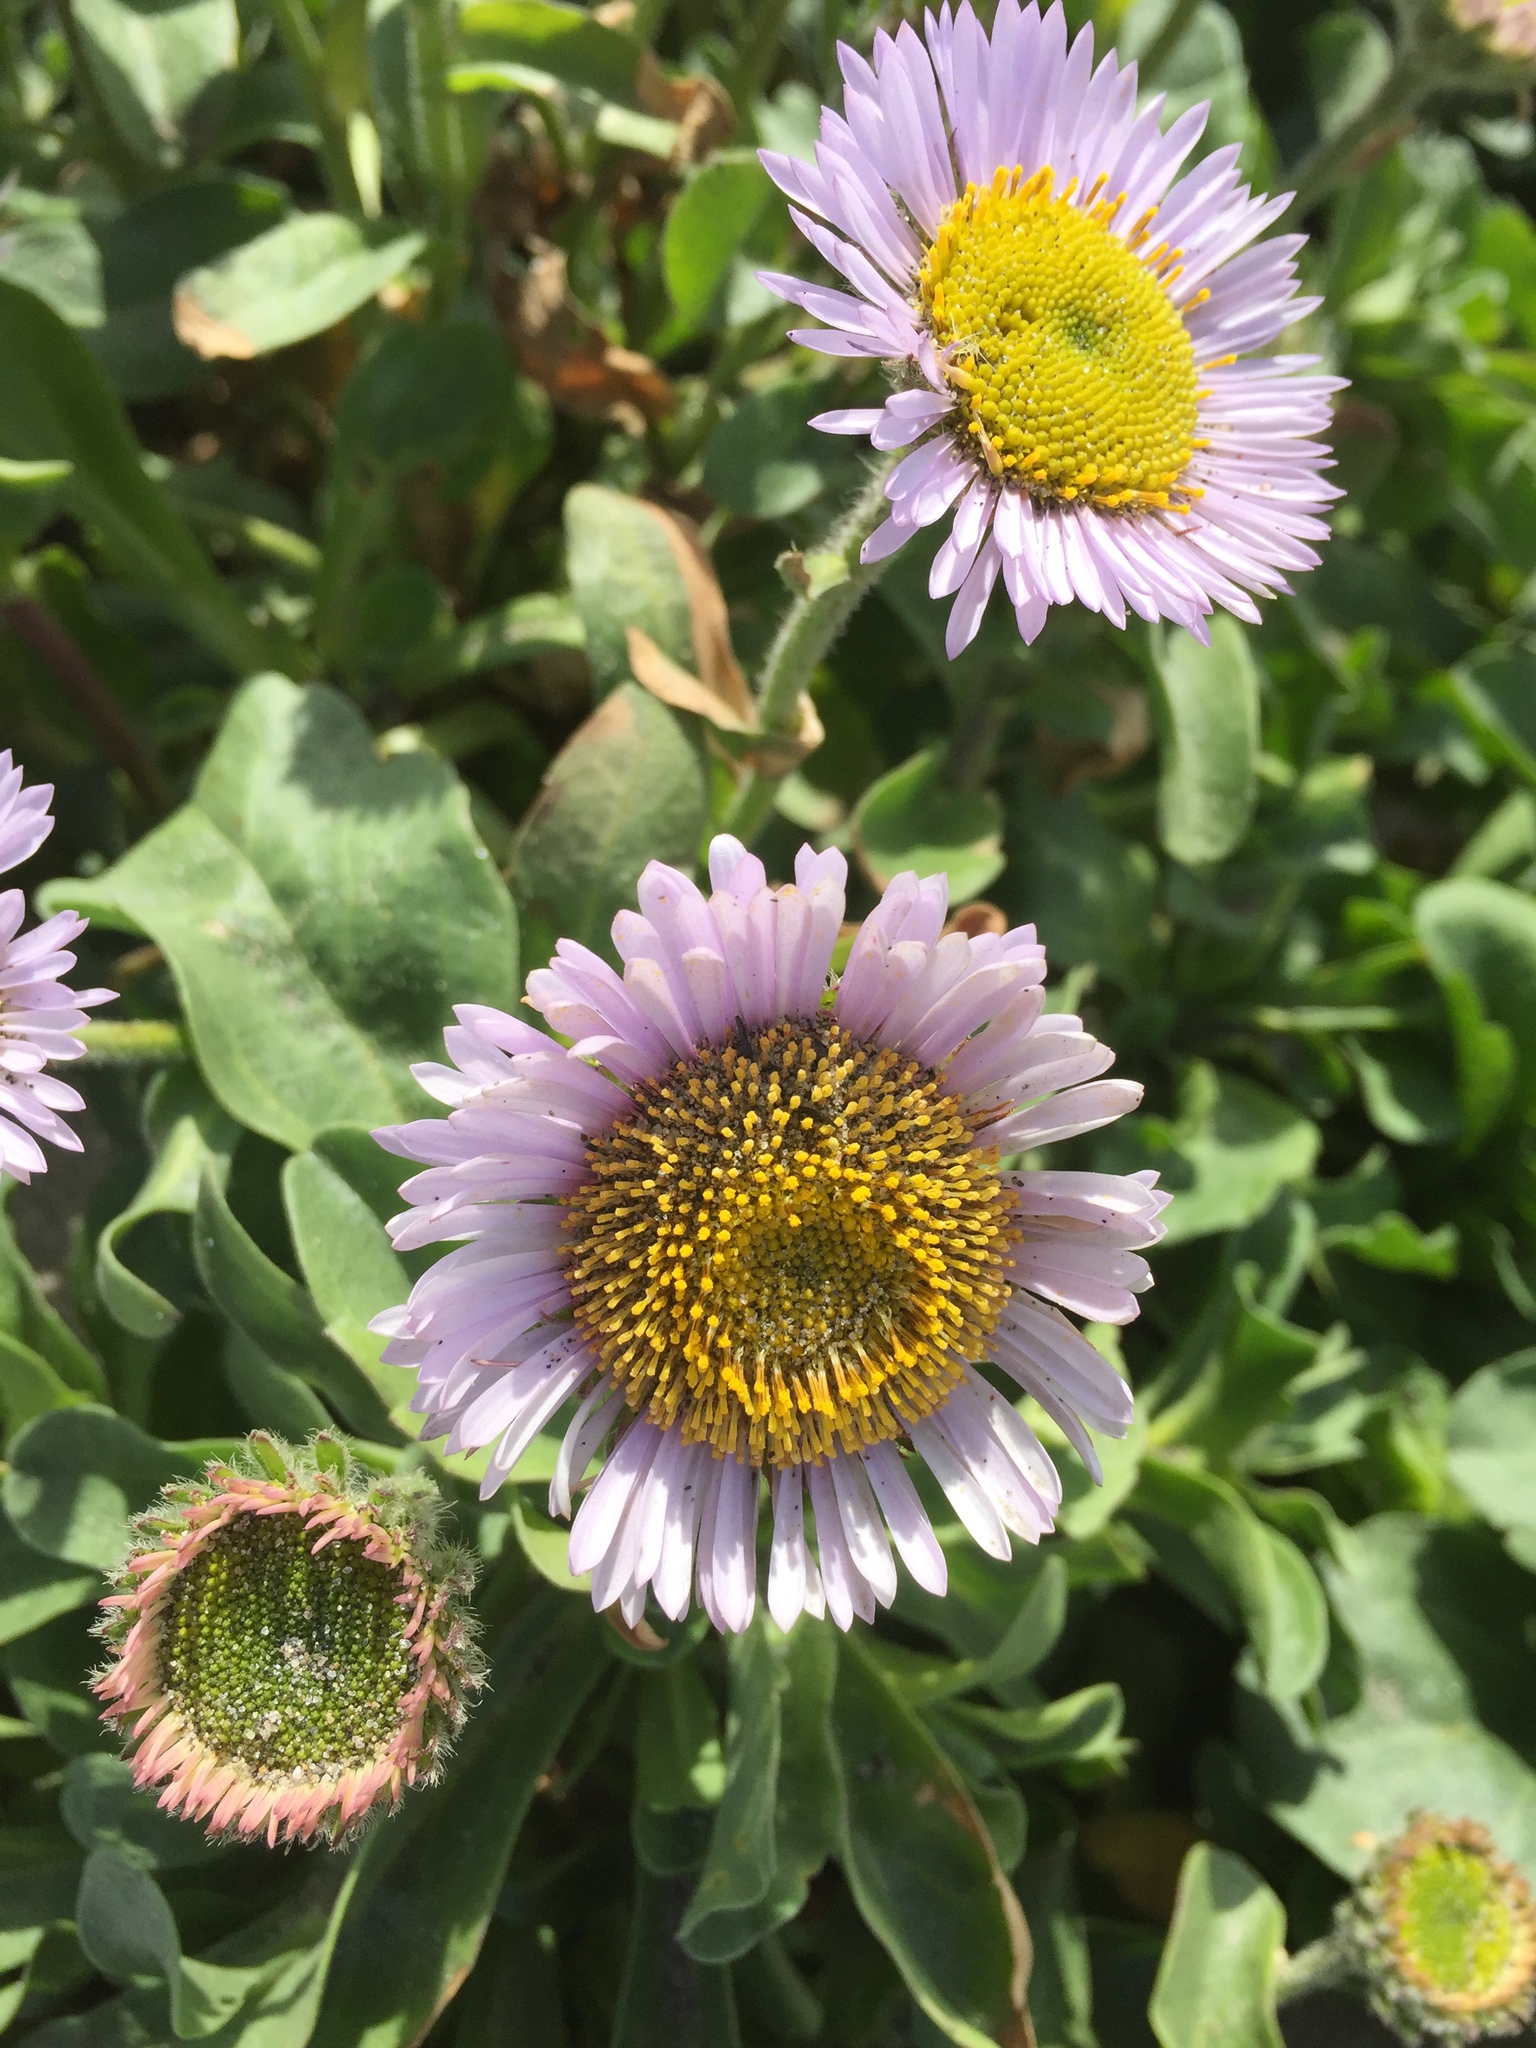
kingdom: Plantae
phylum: Tracheophyta
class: Magnoliopsida
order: Asterales
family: Asteraceae
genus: Erigeron
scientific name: Erigeron glaucus
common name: Seaside daisy
